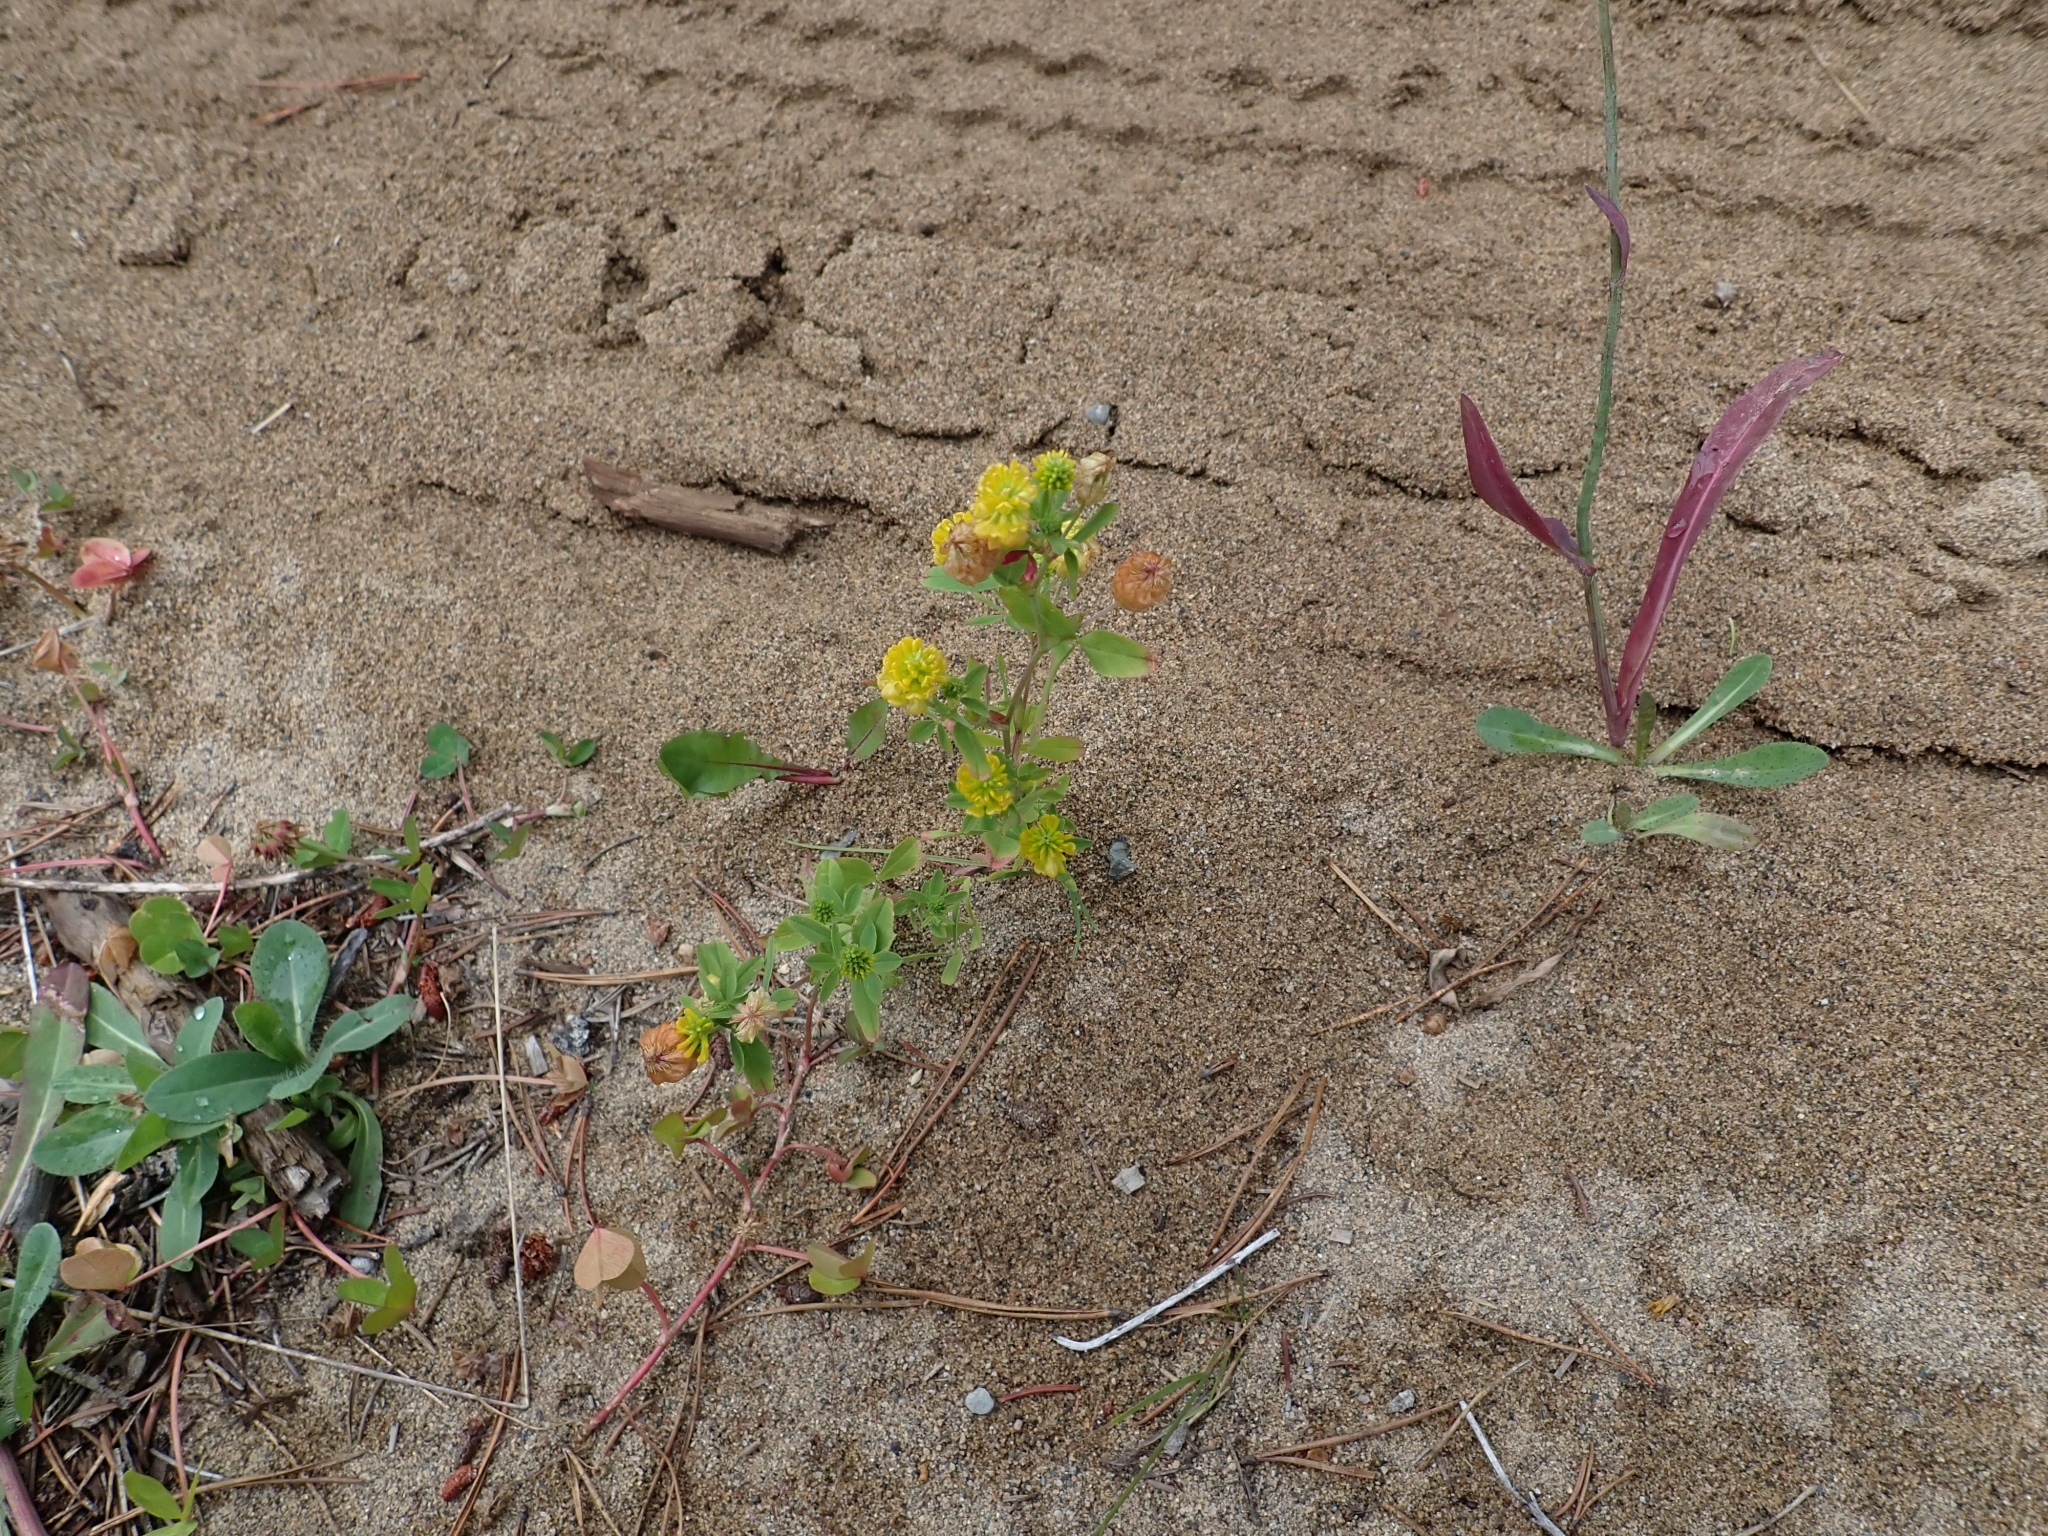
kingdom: Plantae
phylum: Tracheophyta
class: Magnoliopsida
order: Fabales
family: Fabaceae
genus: Trifolium
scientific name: Trifolium aureum
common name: Golden clover
